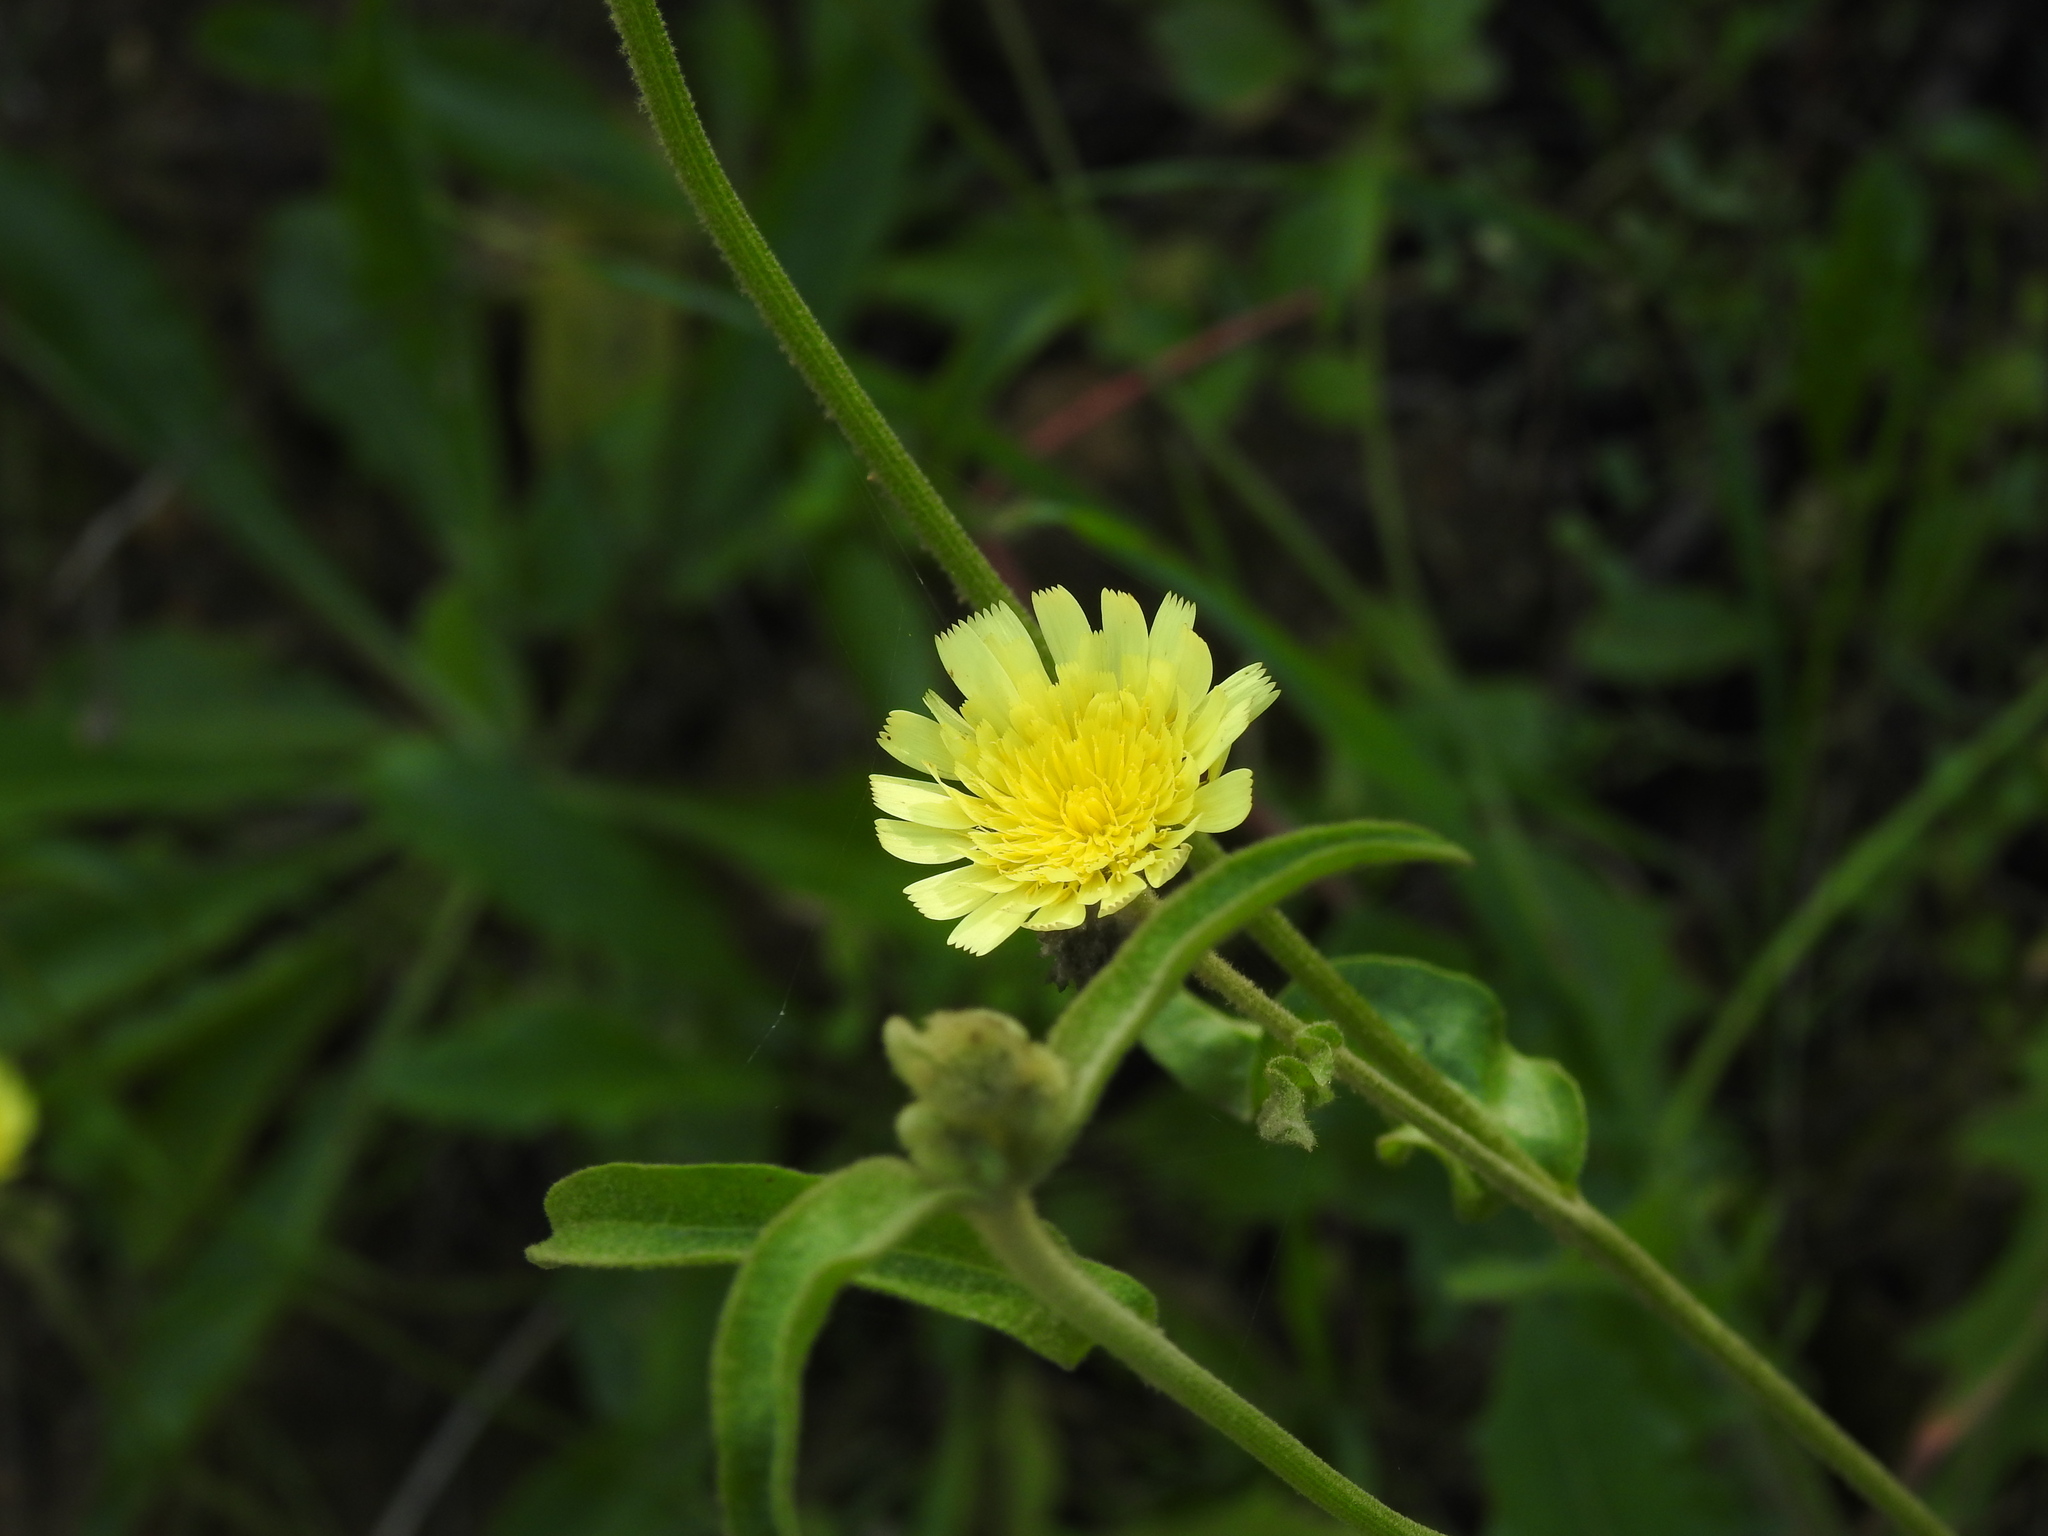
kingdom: Plantae
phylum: Tracheophyta
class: Magnoliopsida
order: Asterales
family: Asteraceae
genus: Andryala
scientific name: Andryala integrifolia
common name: Common andryala
